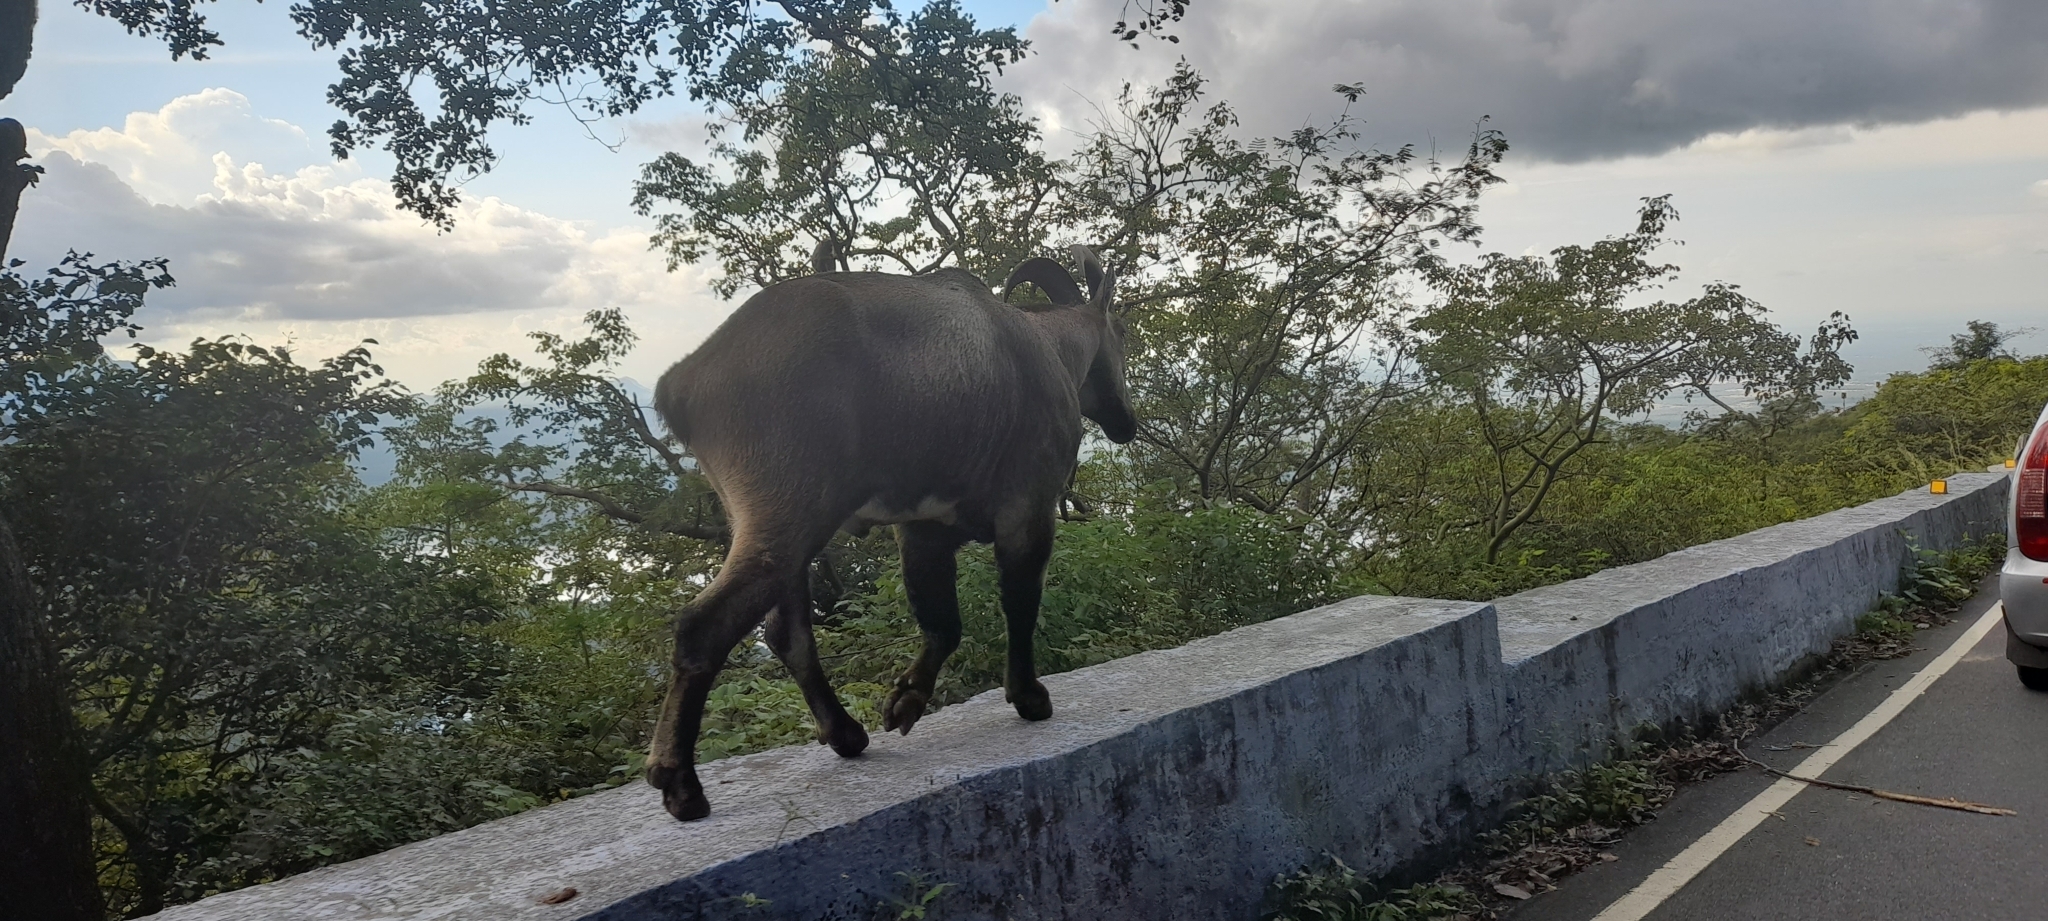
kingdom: Animalia
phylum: Chordata
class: Mammalia
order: Artiodactyla
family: Bovidae
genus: Hemitragus
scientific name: Hemitragus hylocrius
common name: Nilgiri tahr
